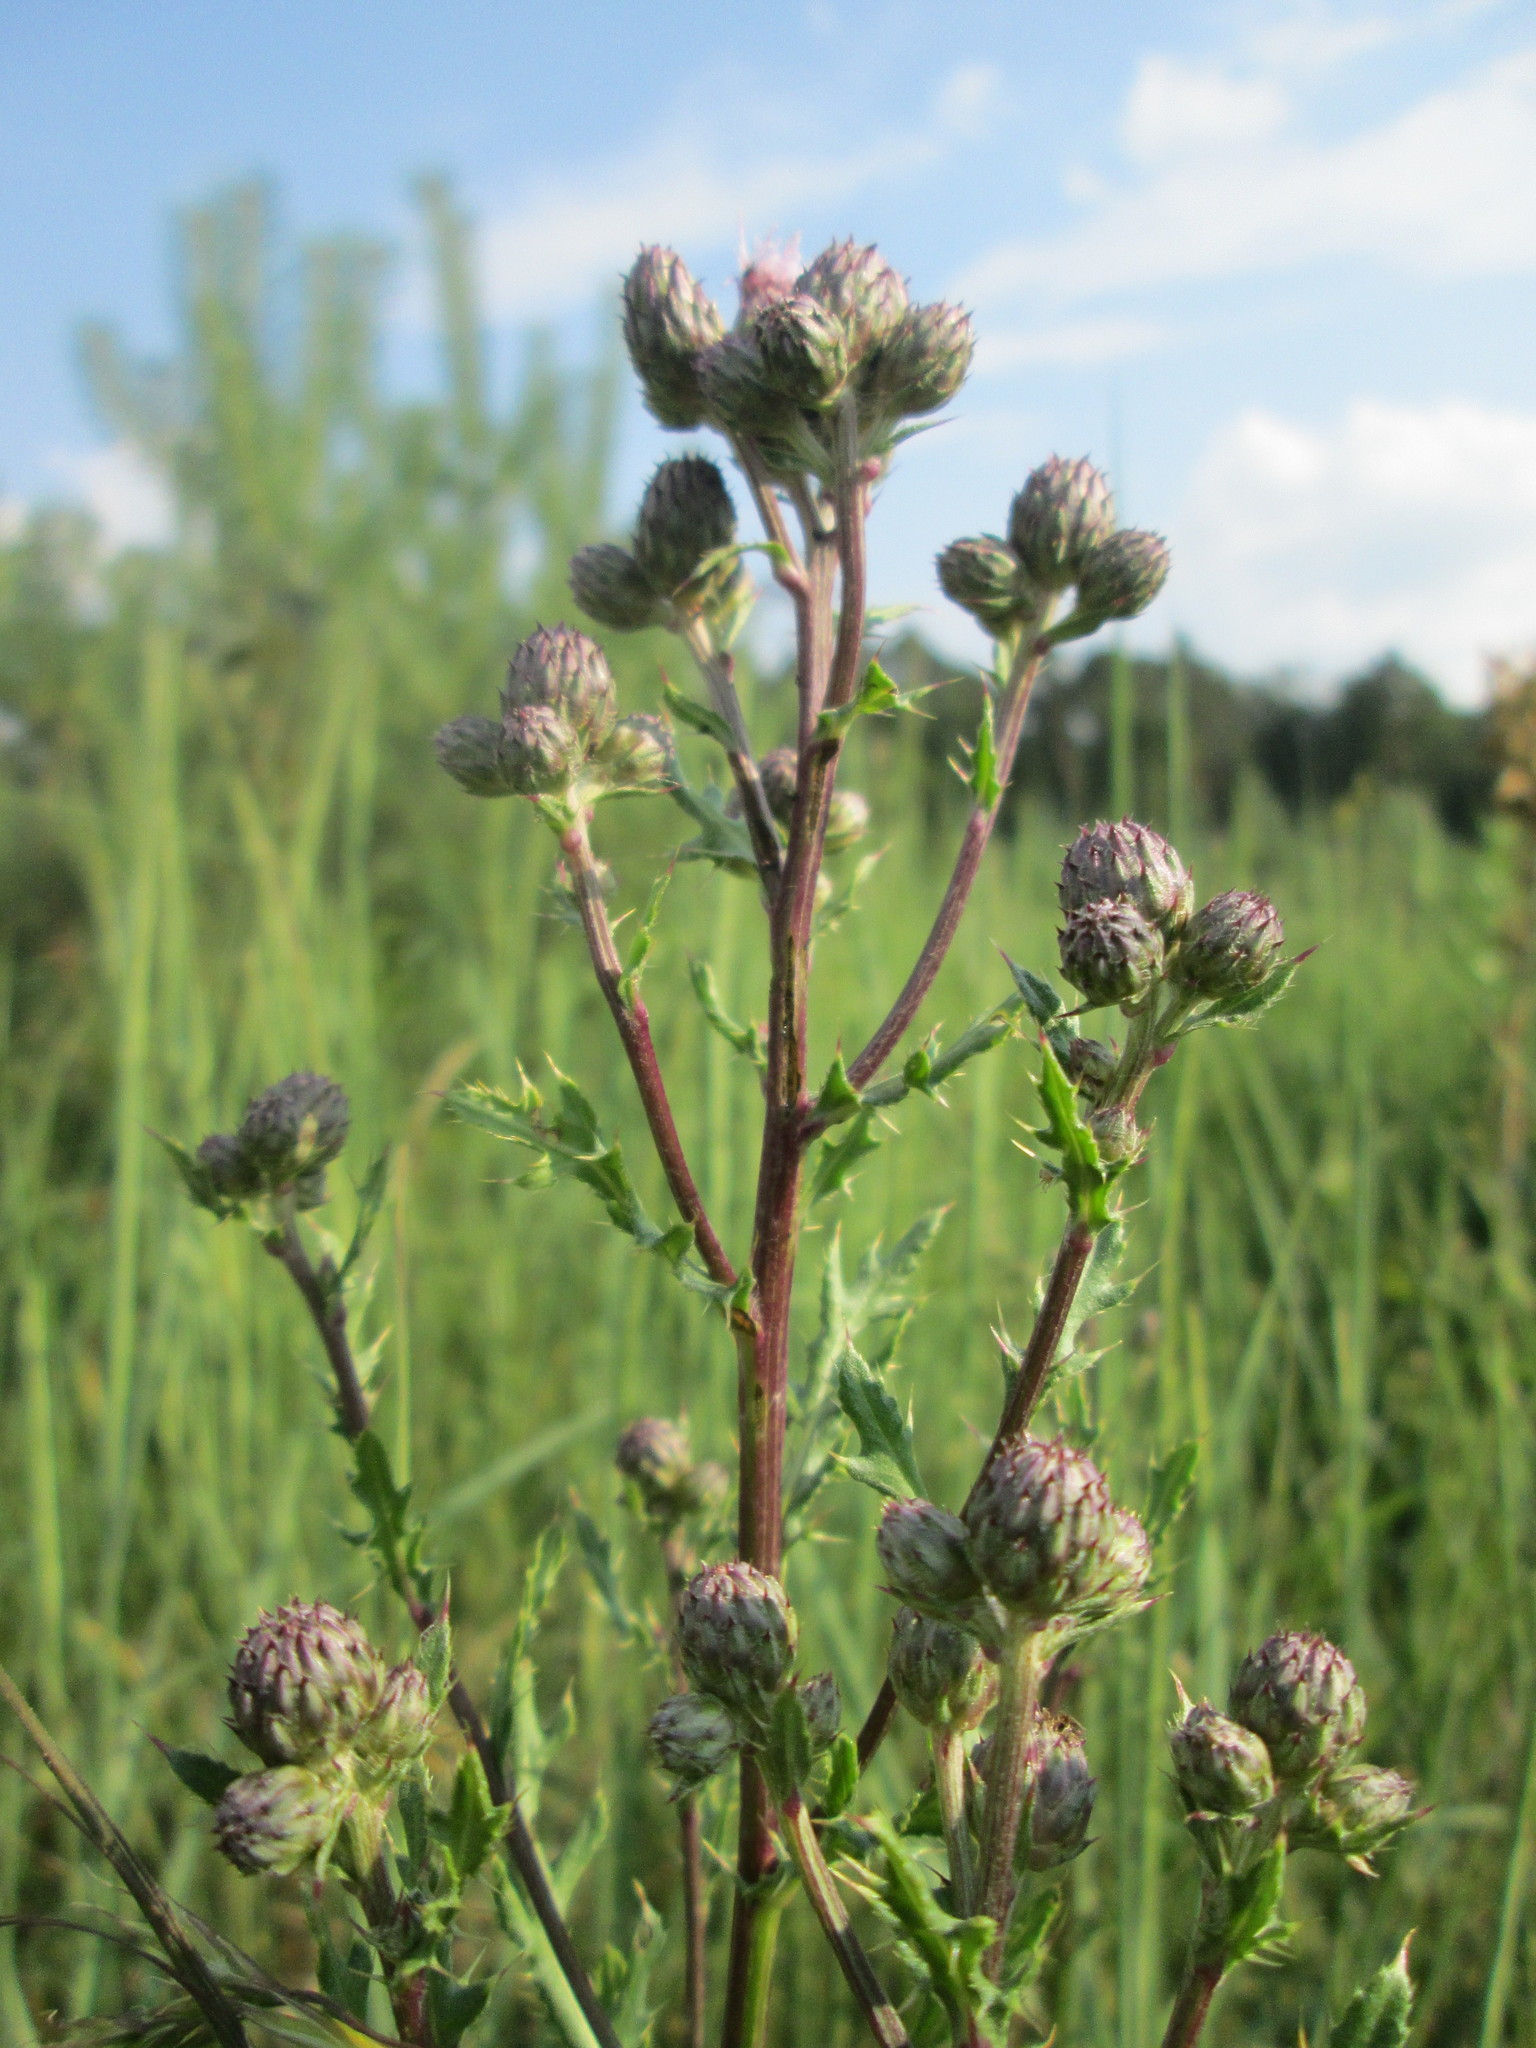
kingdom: Plantae
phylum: Tracheophyta
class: Magnoliopsida
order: Asterales
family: Asteraceae
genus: Cirsium
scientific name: Cirsium arvense
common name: Creeping thistle
